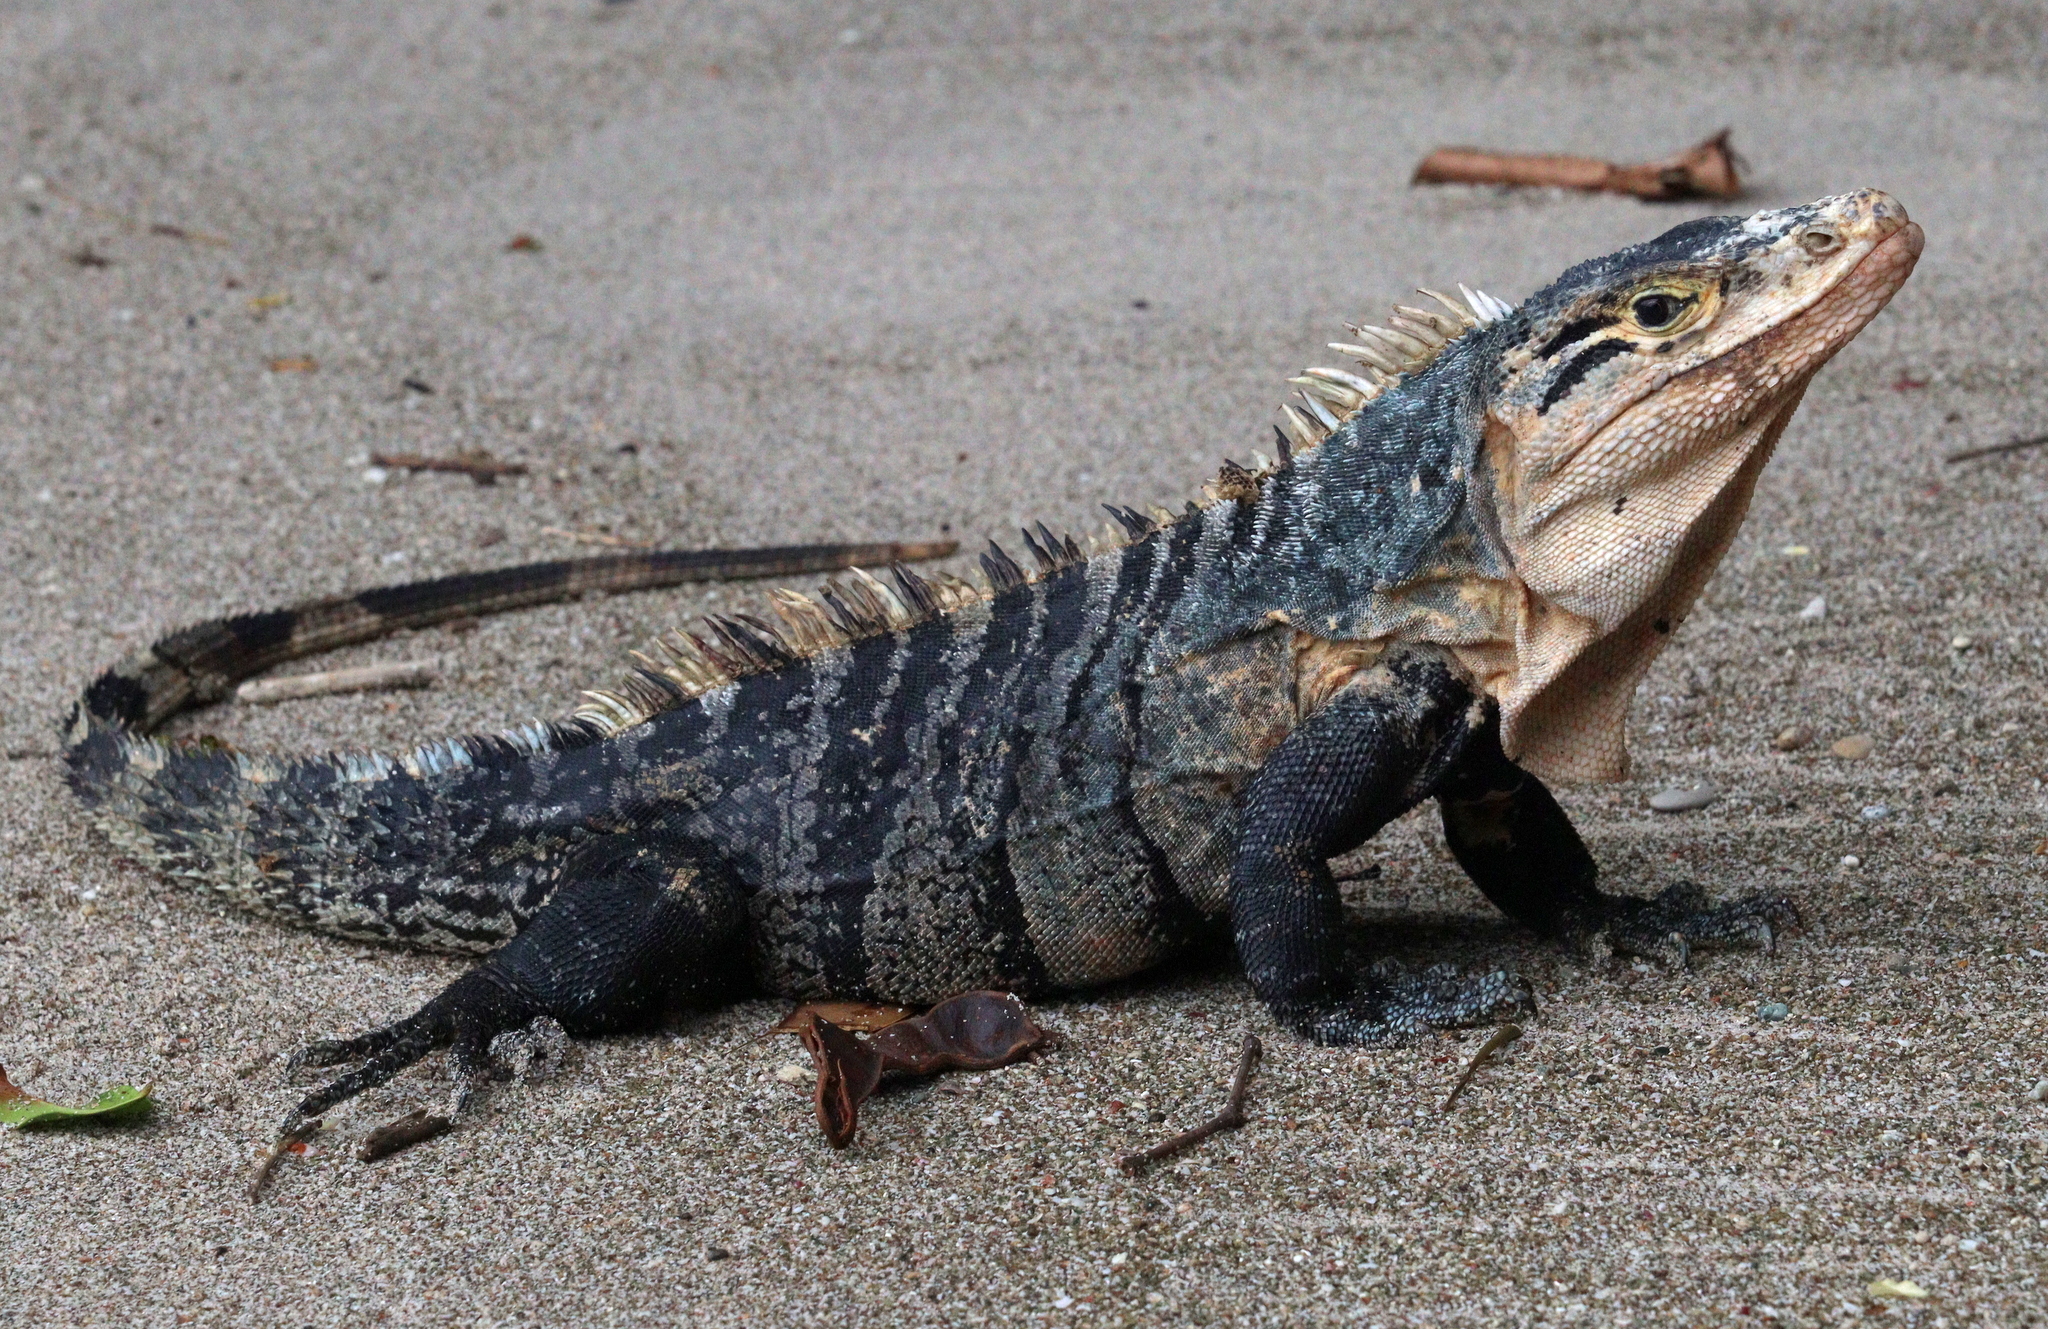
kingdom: Animalia
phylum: Chordata
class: Squamata
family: Iguanidae
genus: Ctenosaura
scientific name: Ctenosaura similis
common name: Black spiny-tailed iguana
